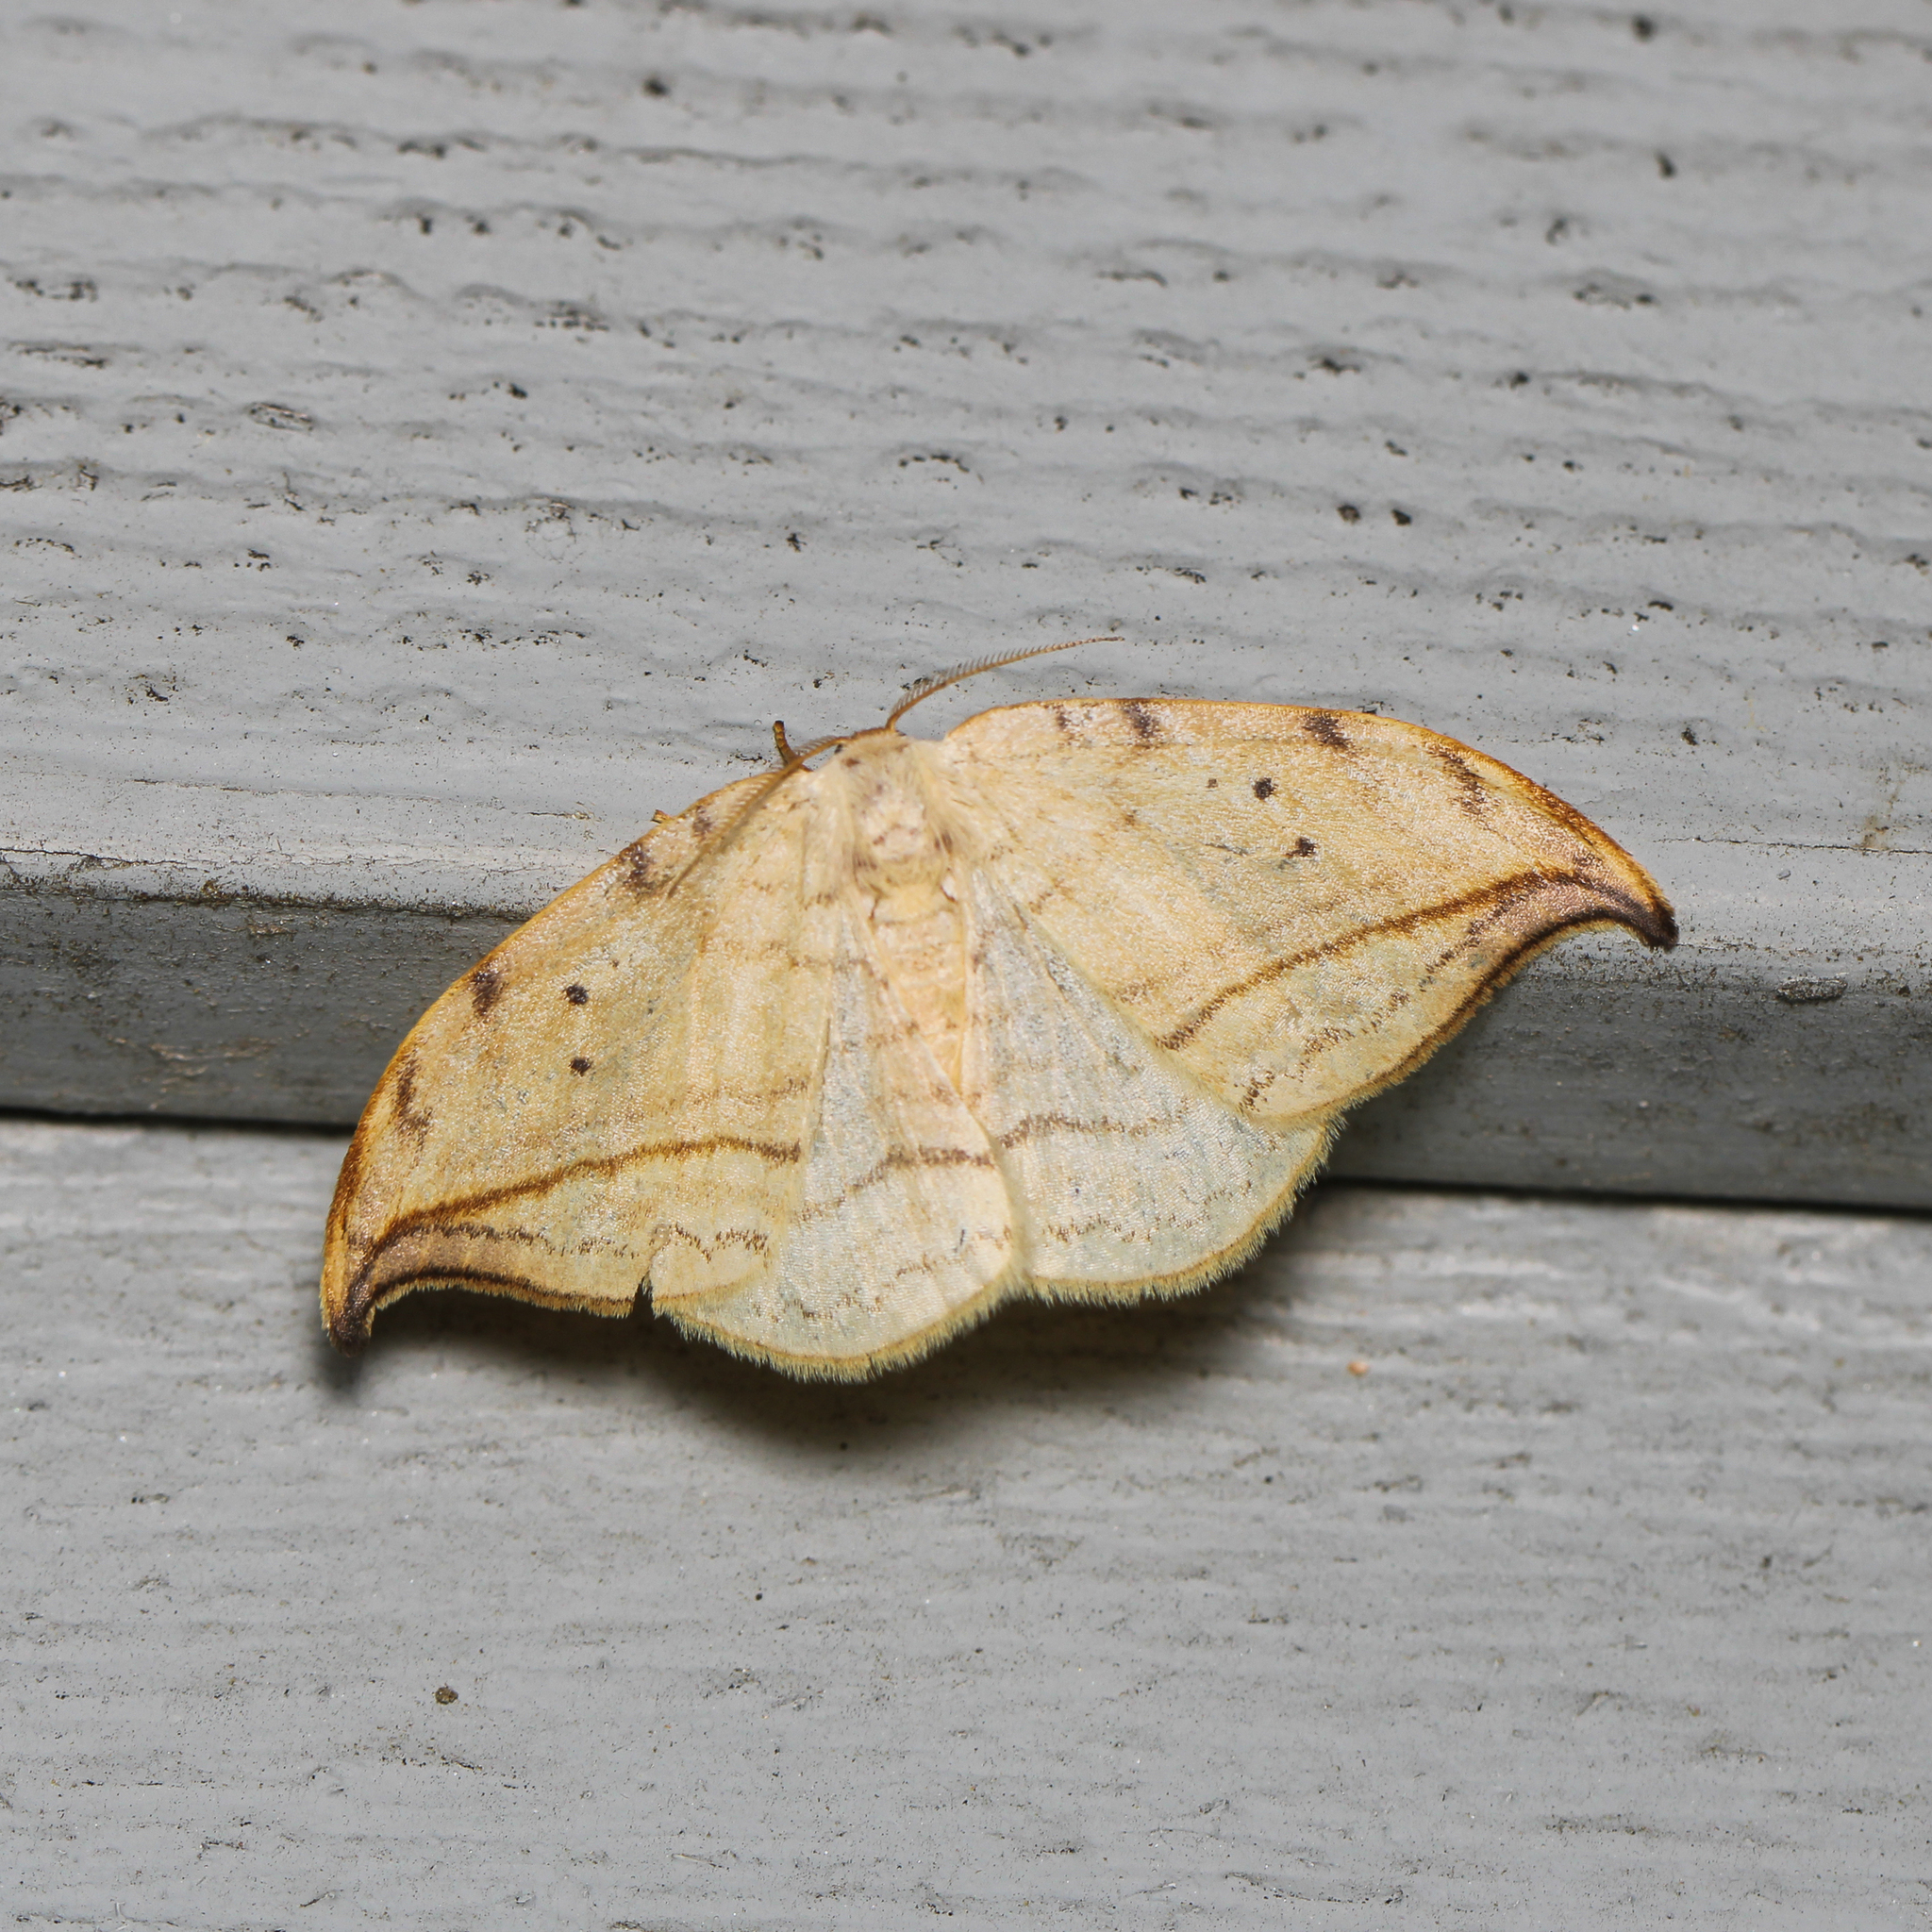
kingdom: Animalia
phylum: Arthropoda
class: Insecta
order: Lepidoptera
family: Drepanidae
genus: Drepana
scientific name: Drepana arcuata
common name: Arched hooktip moth
